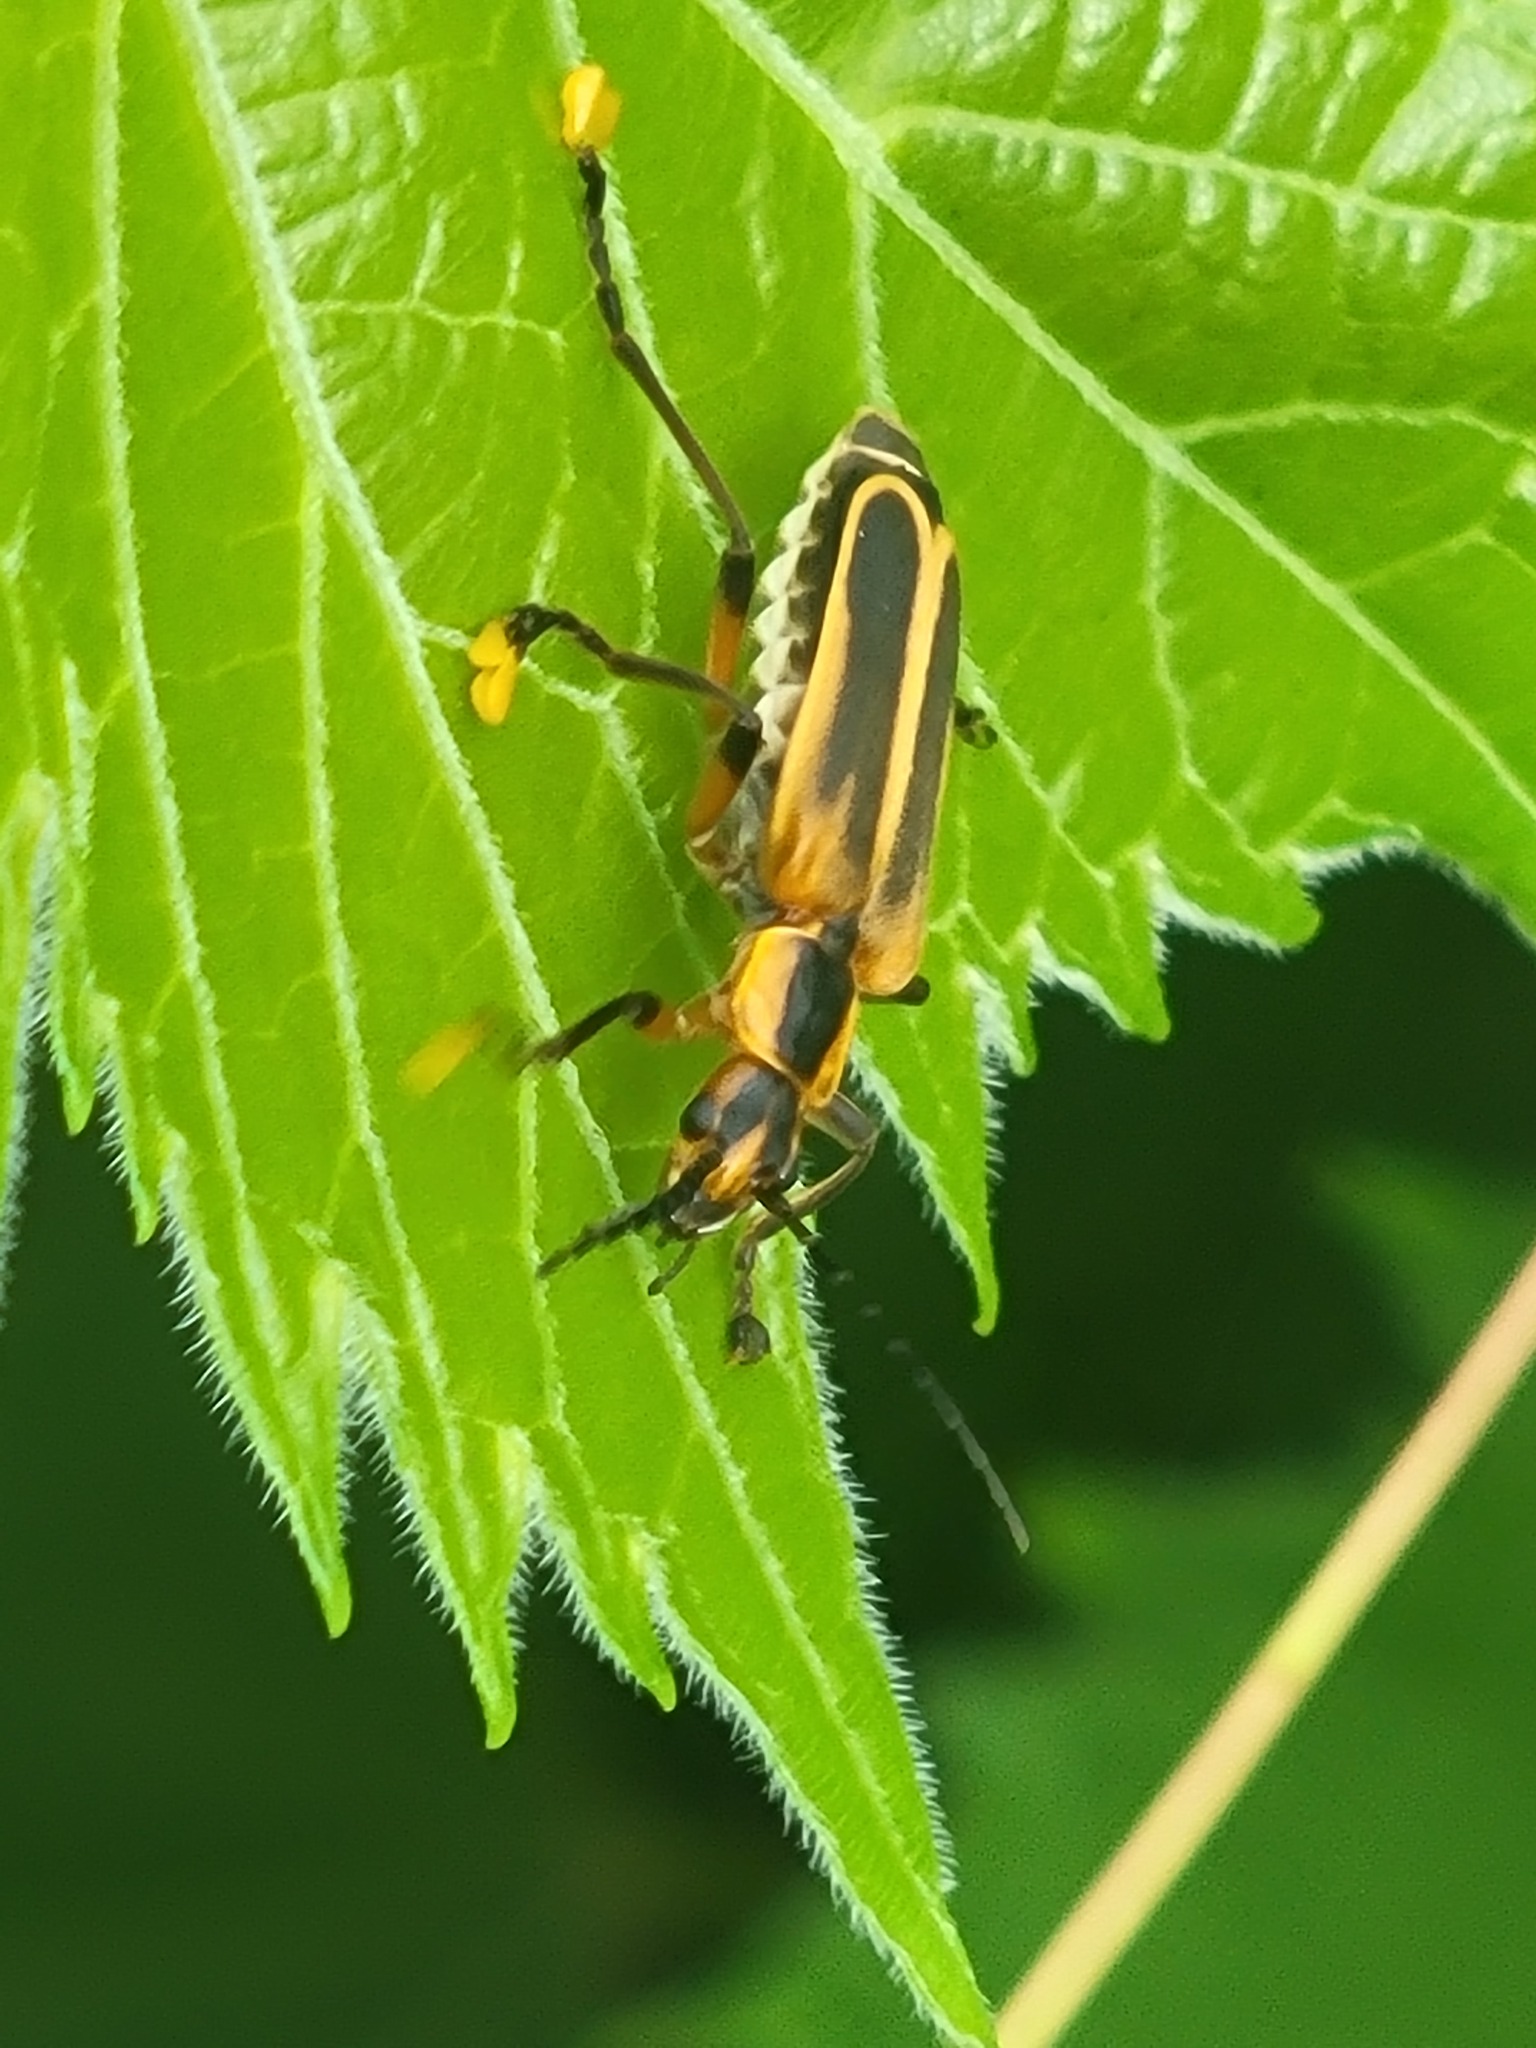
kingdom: Animalia
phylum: Arthropoda
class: Insecta
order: Coleoptera
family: Cantharidae
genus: Chauliognathus
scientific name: Chauliognathus marginatus
